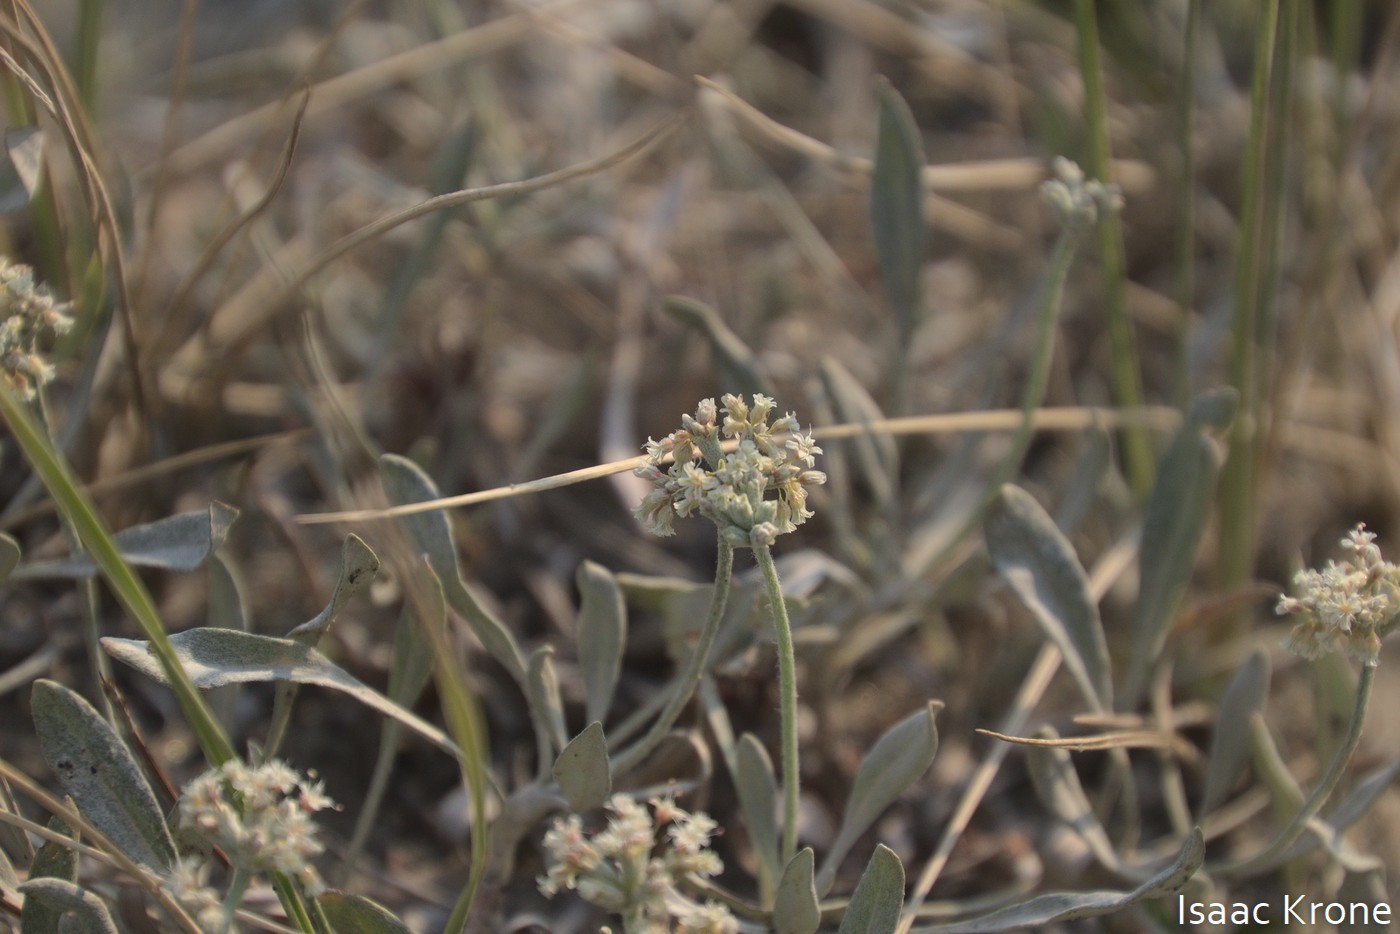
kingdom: Plantae
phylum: Tracheophyta
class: Magnoliopsida
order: Caryophyllales
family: Polygonaceae
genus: Eriogonum
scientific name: Eriogonum pauciflorum
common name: Few-flower wild buckwheat
